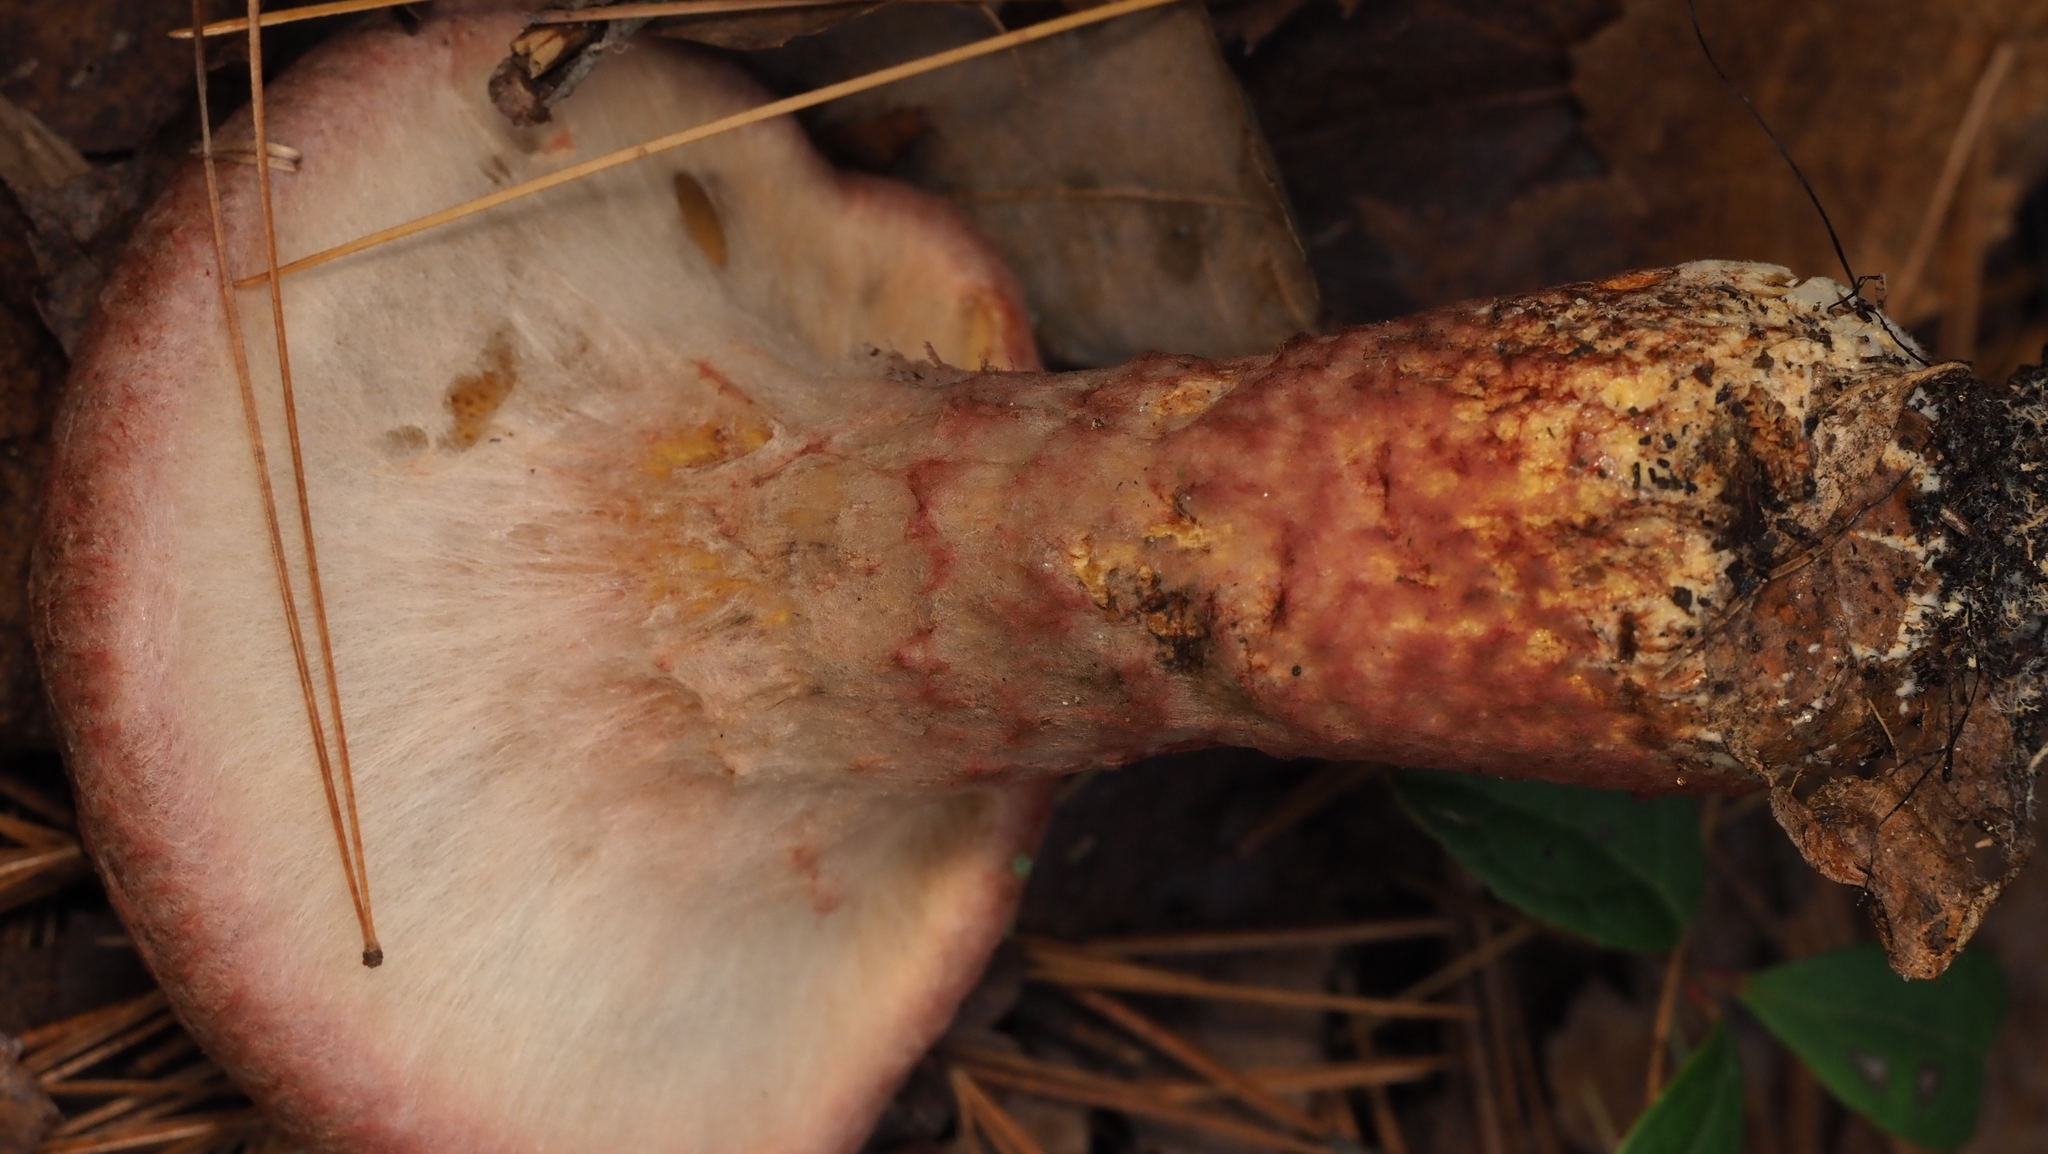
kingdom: Fungi
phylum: Basidiomycota
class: Agaricomycetes
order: Boletales
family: Suillaceae
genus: Suillus
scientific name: Suillus spraguei
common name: Painted suillus
